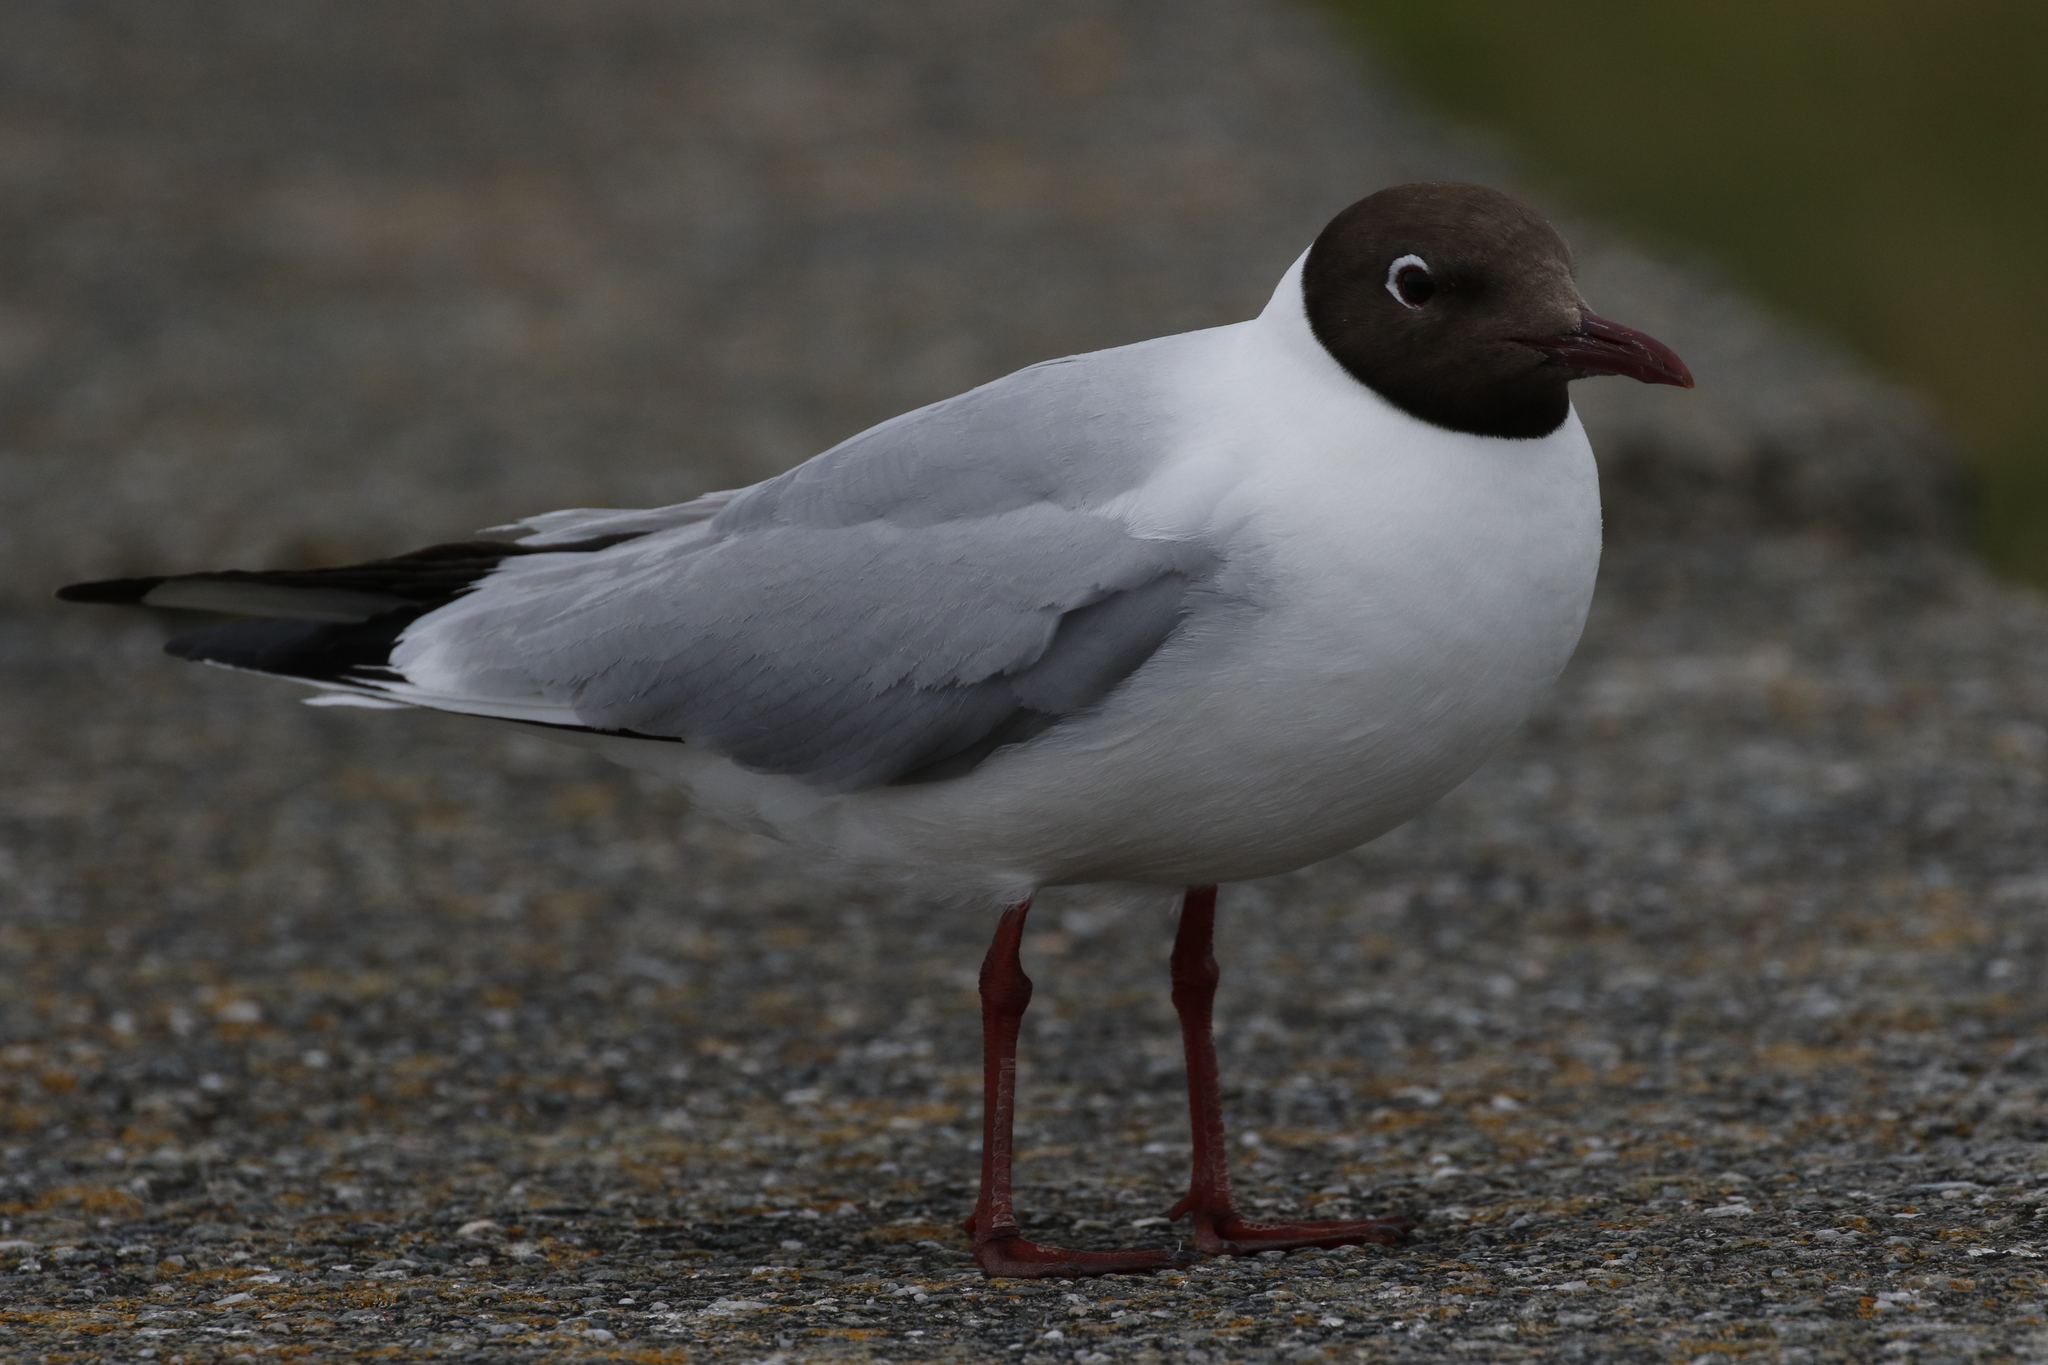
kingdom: Animalia
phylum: Chordata
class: Aves
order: Charadriiformes
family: Laridae
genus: Chroicocephalus
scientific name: Chroicocephalus ridibundus
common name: Black-headed gull
